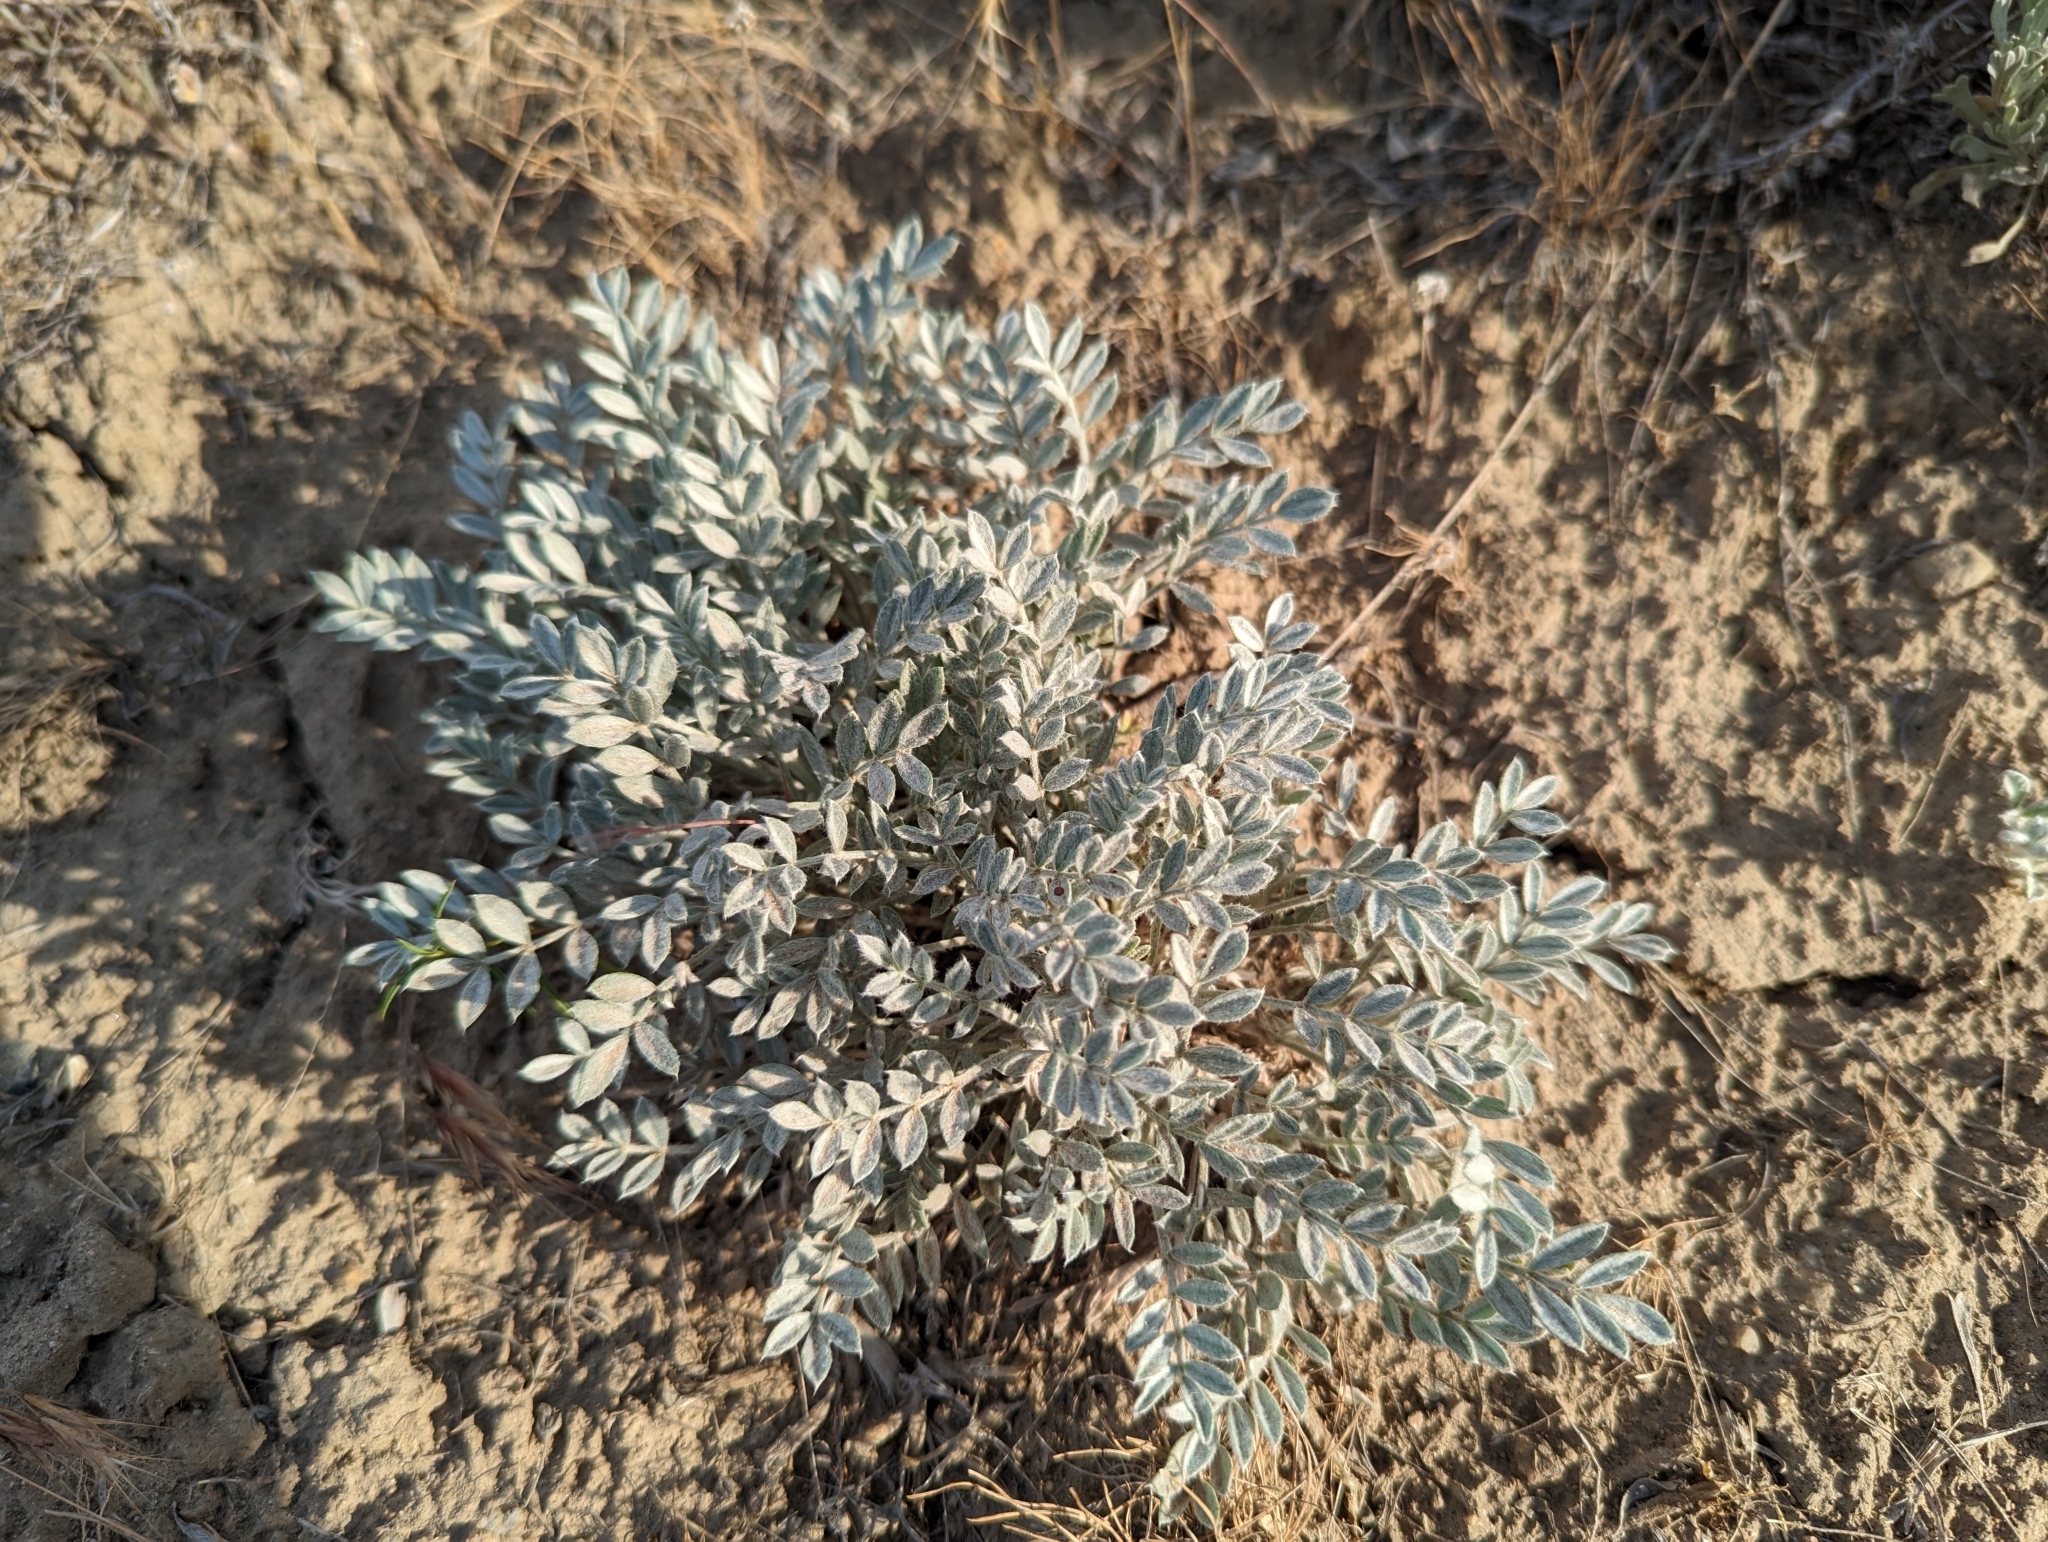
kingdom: Plantae
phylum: Tracheophyta
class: Magnoliopsida
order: Fabales
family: Fabaceae
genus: Astragalus
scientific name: Astragalus purshii
